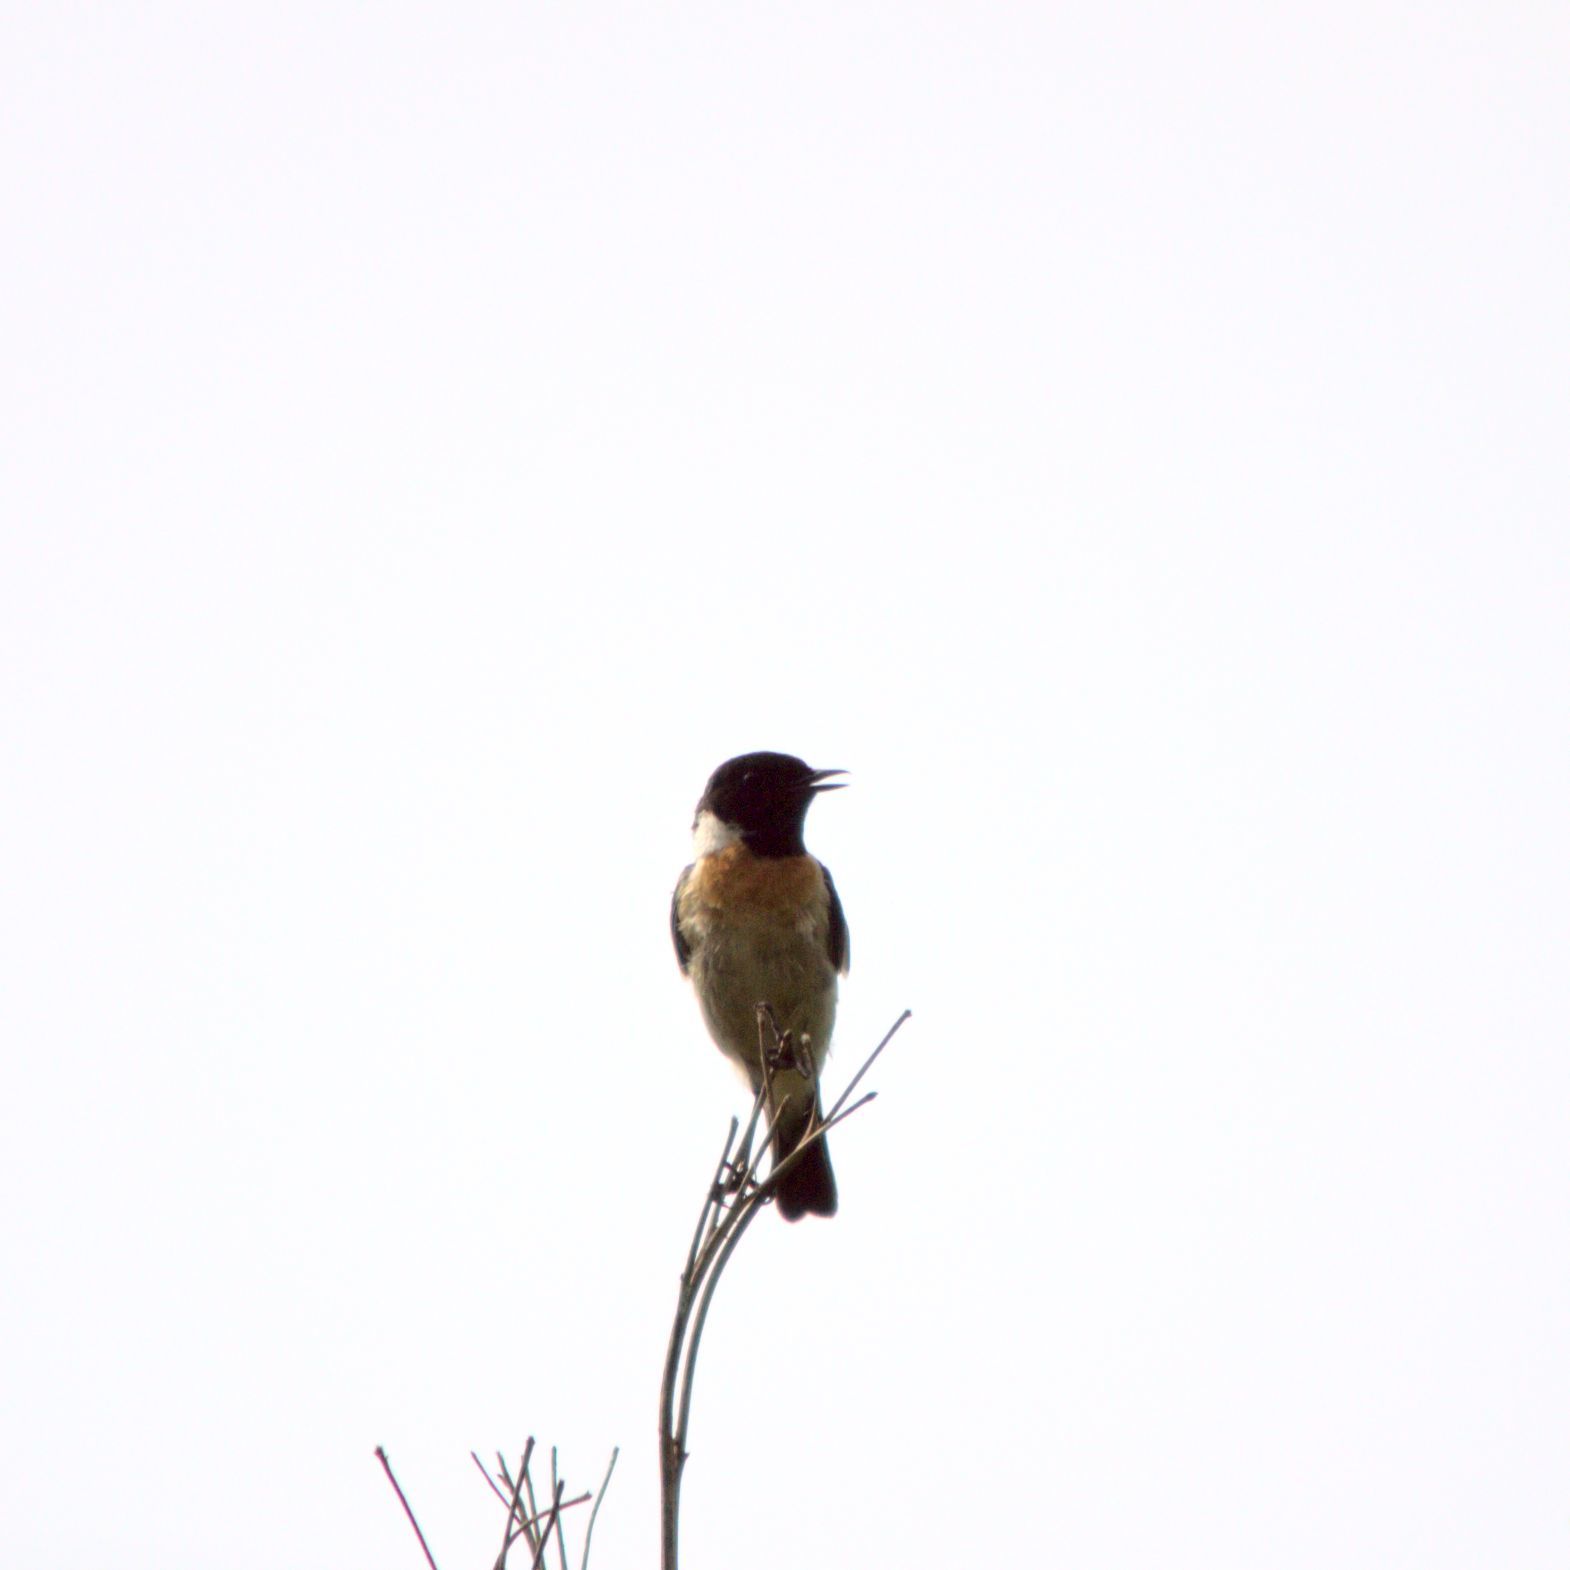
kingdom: Animalia
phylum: Chordata
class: Aves
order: Passeriformes
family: Muscicapidae
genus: Saxicola
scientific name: Saxicola maurus
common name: Siberian stonechat
